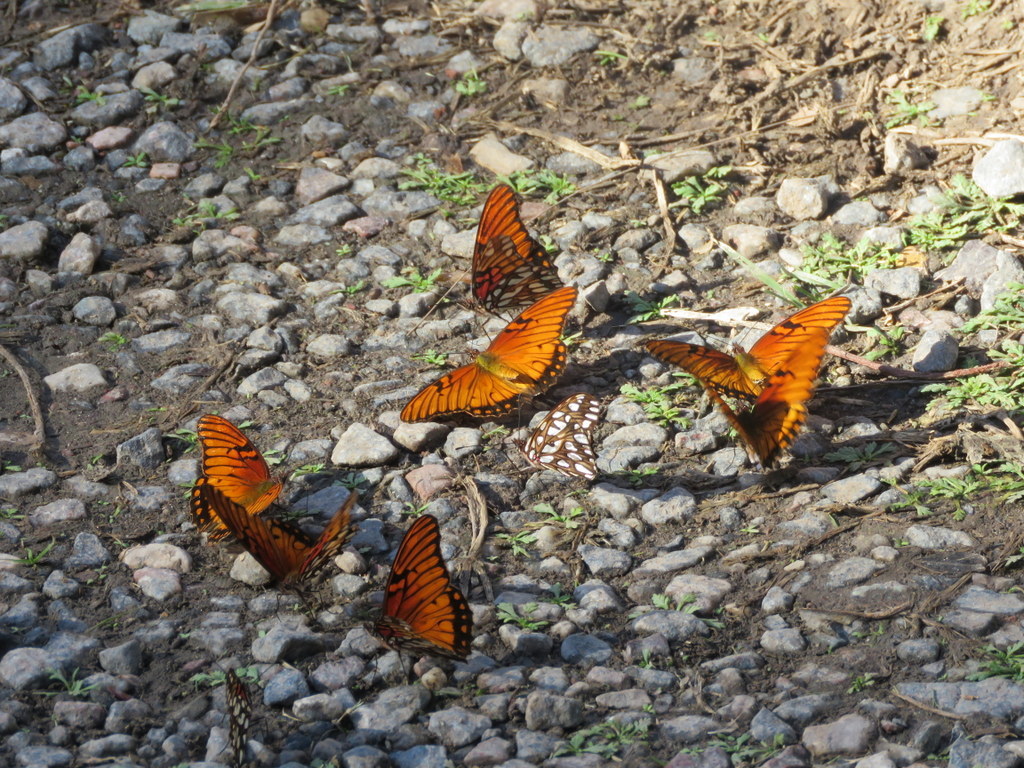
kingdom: Animalia
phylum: Arthropoda
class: Insecta
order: Lepidoptera
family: Nymphalidae
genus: Dione
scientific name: Dione moneta
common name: Mexican silverspot
